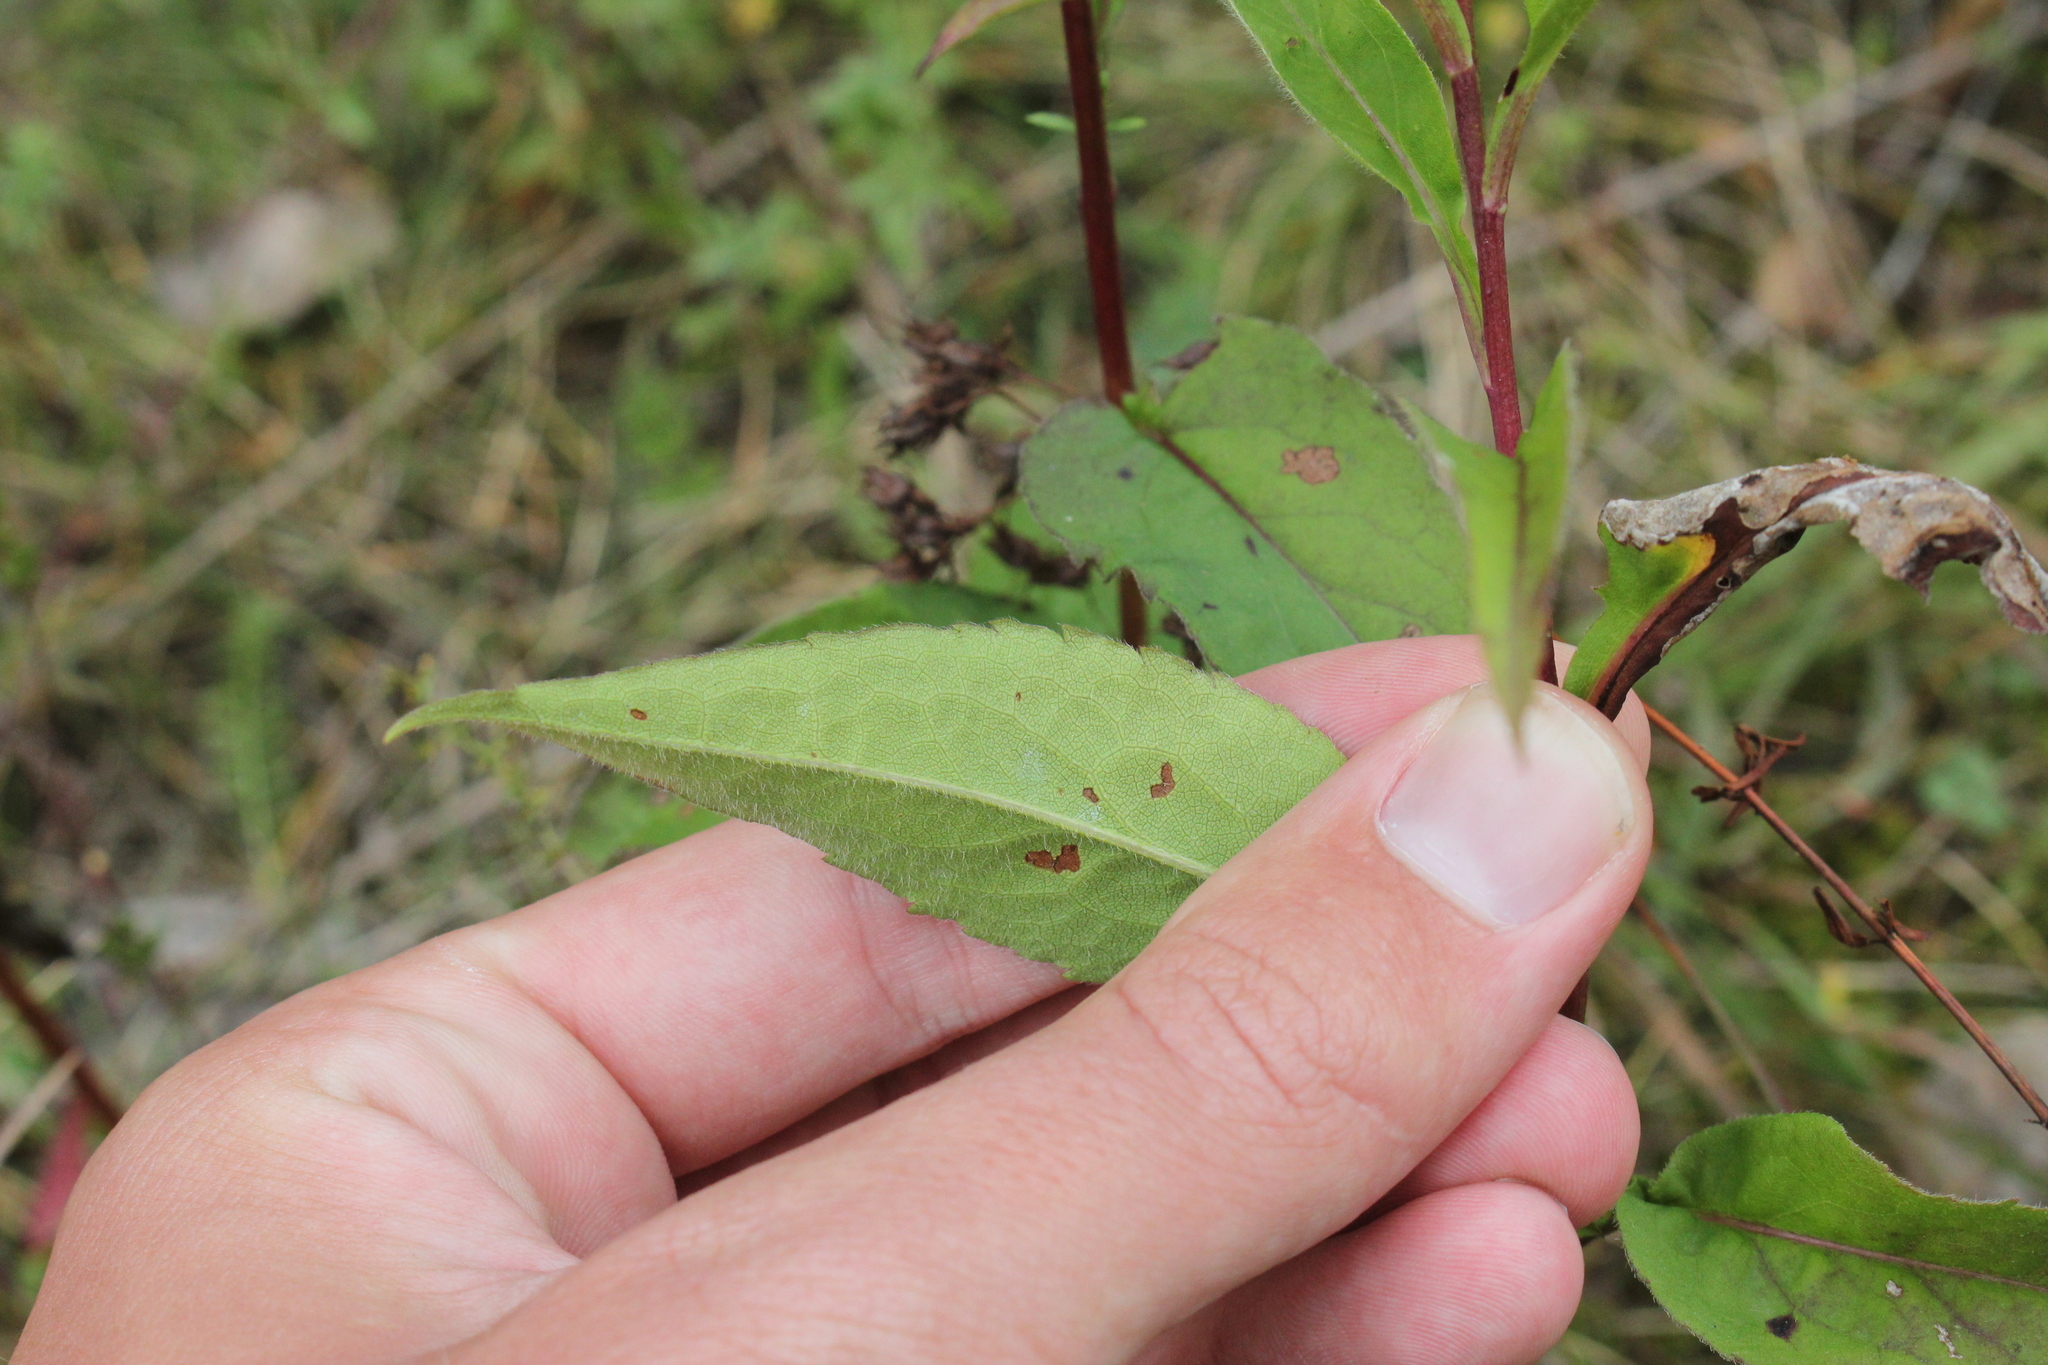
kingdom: Plantae
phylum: Tracheophyta
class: Magnoliopsida
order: Asterales
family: Asteraceae
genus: Symphyotrichum
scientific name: Symphyotrichum urophyllum
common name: Arrow-leaved aster
